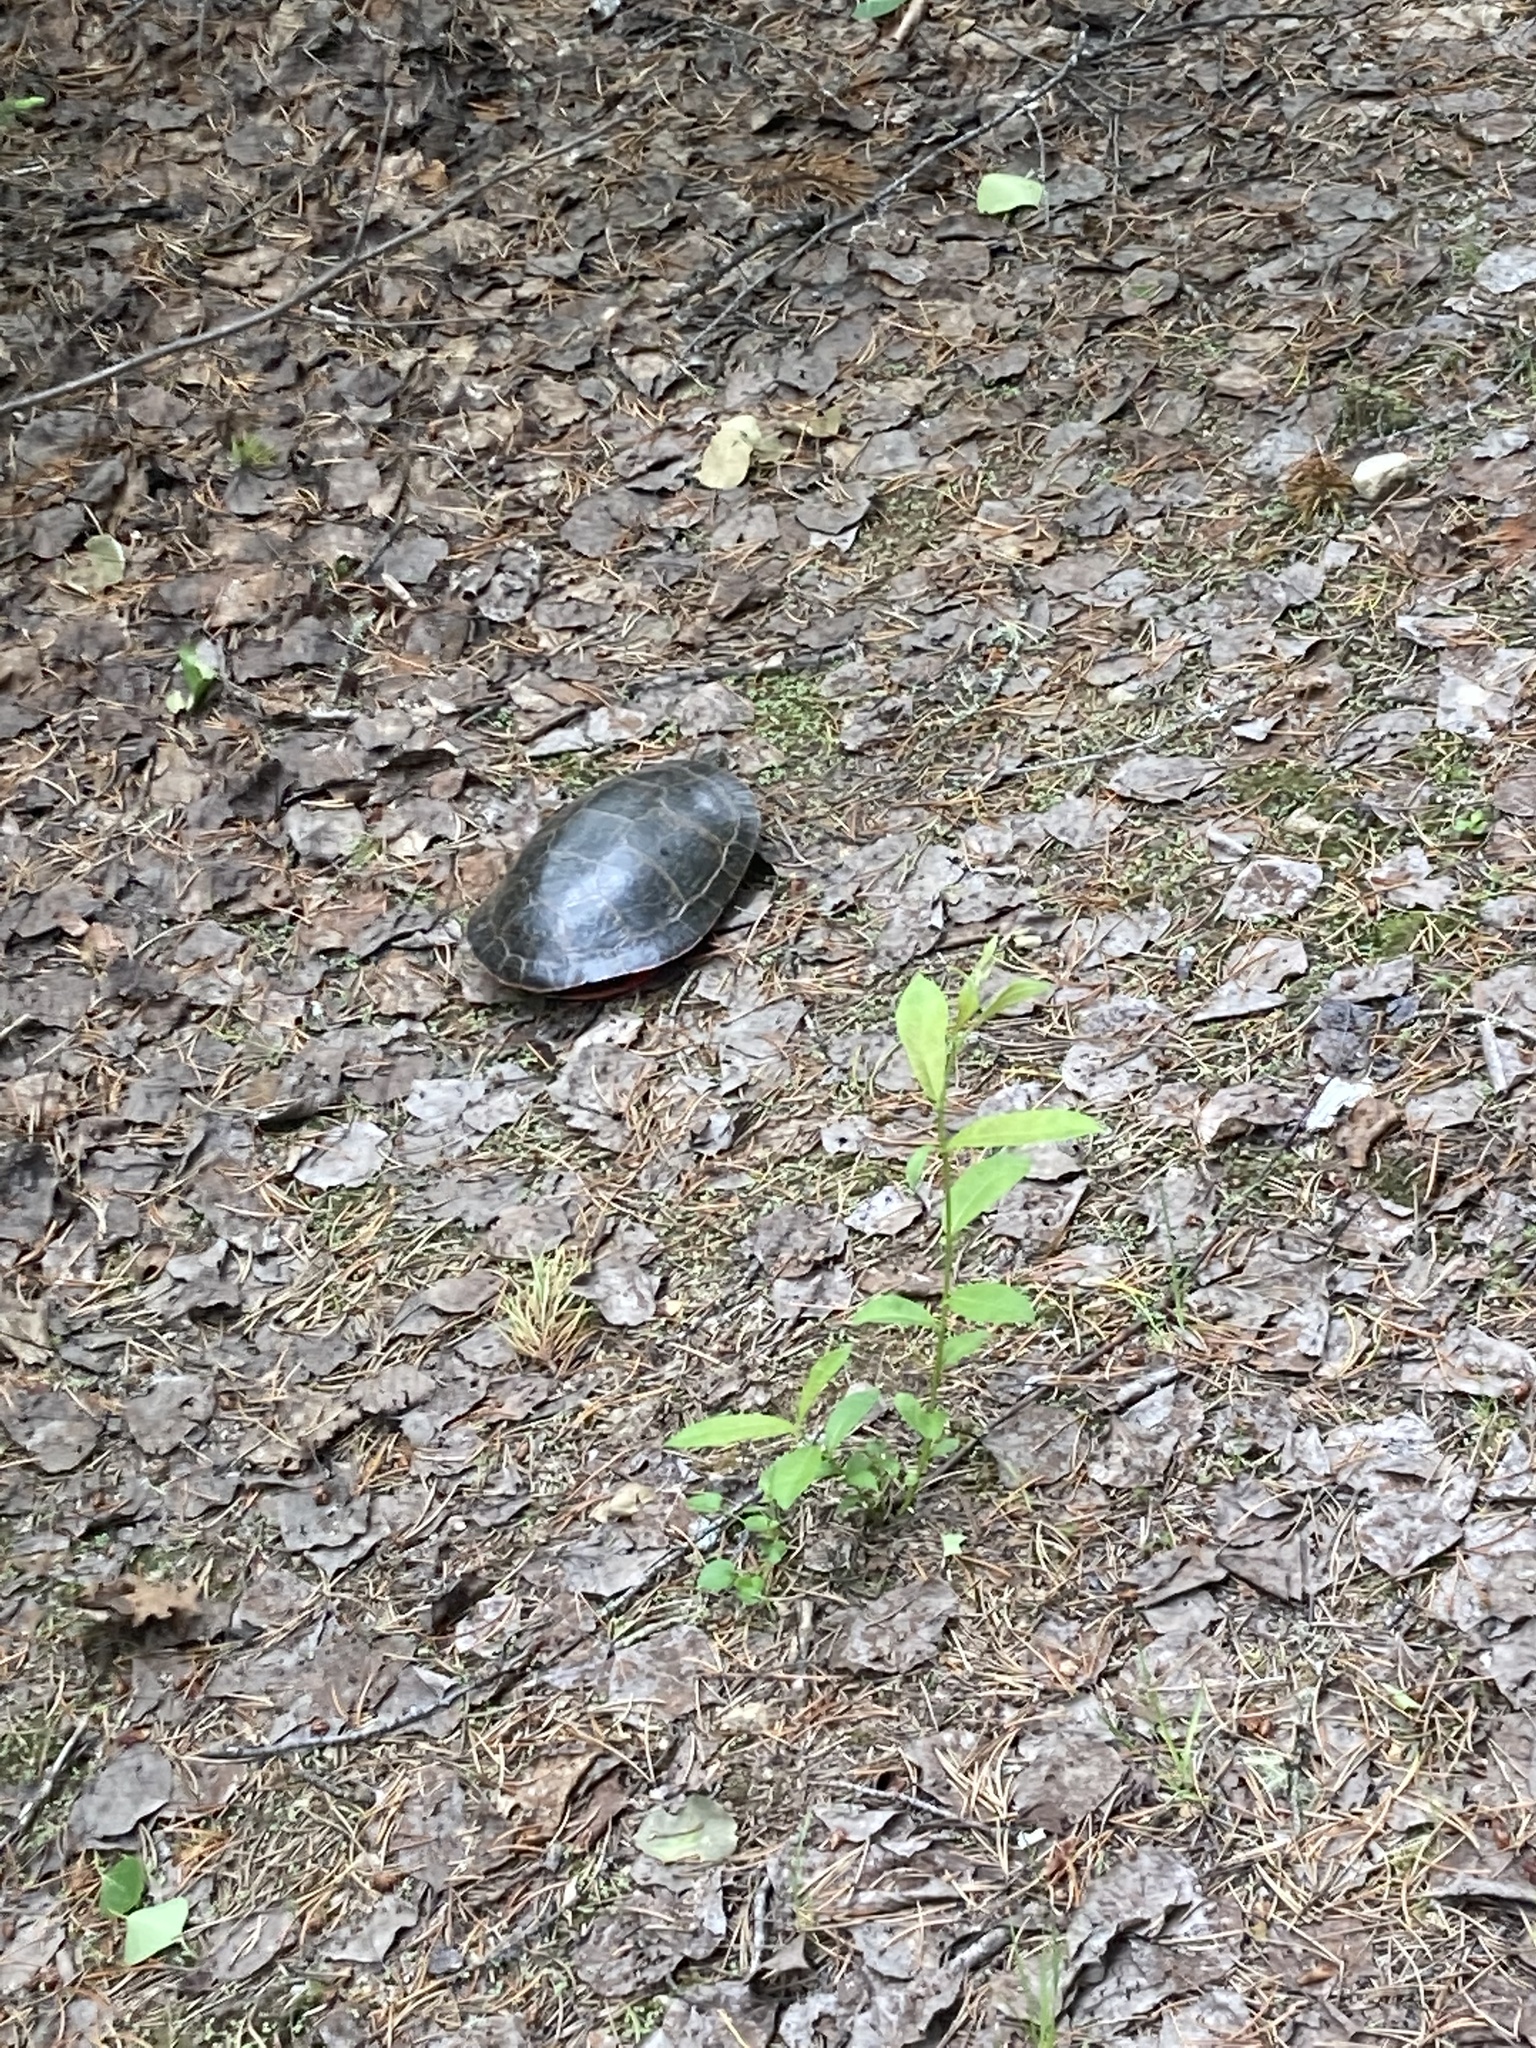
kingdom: Animalia
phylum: Chordata
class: Testudines
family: Emydidae
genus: Chrysemys
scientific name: Chrysemys picta
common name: Painted turtle
